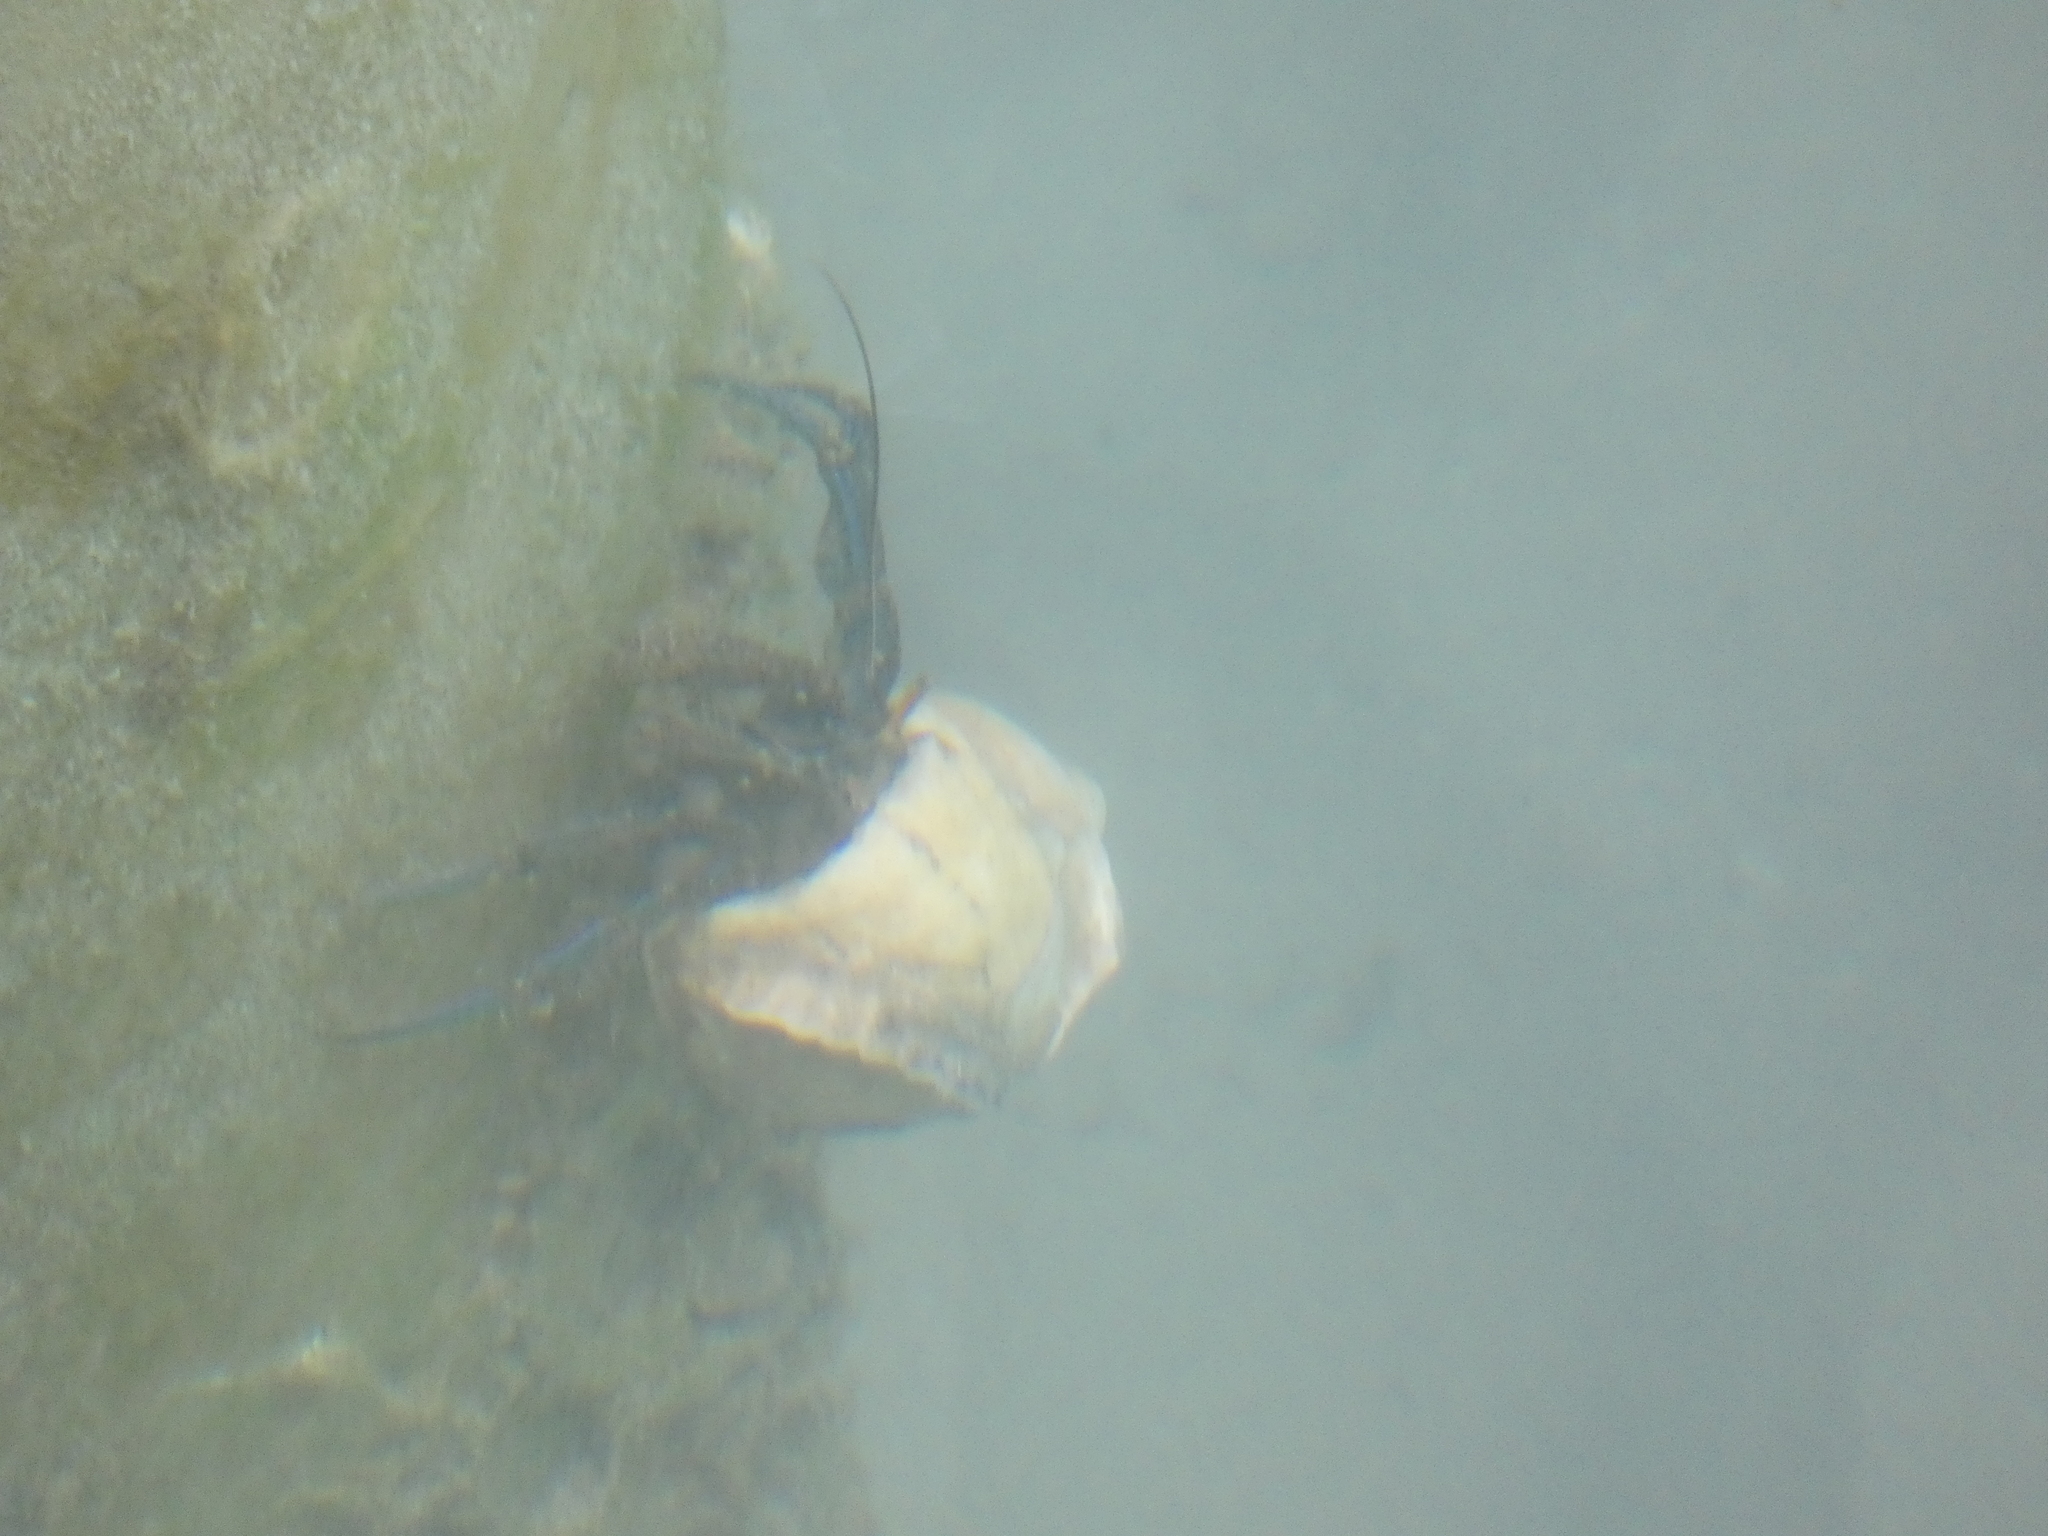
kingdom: Animalia
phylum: Arthropoda
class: Malacostraca
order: Decapoda
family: Diogenidae
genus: Clibanarius
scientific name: Clibanarius longitarsus
